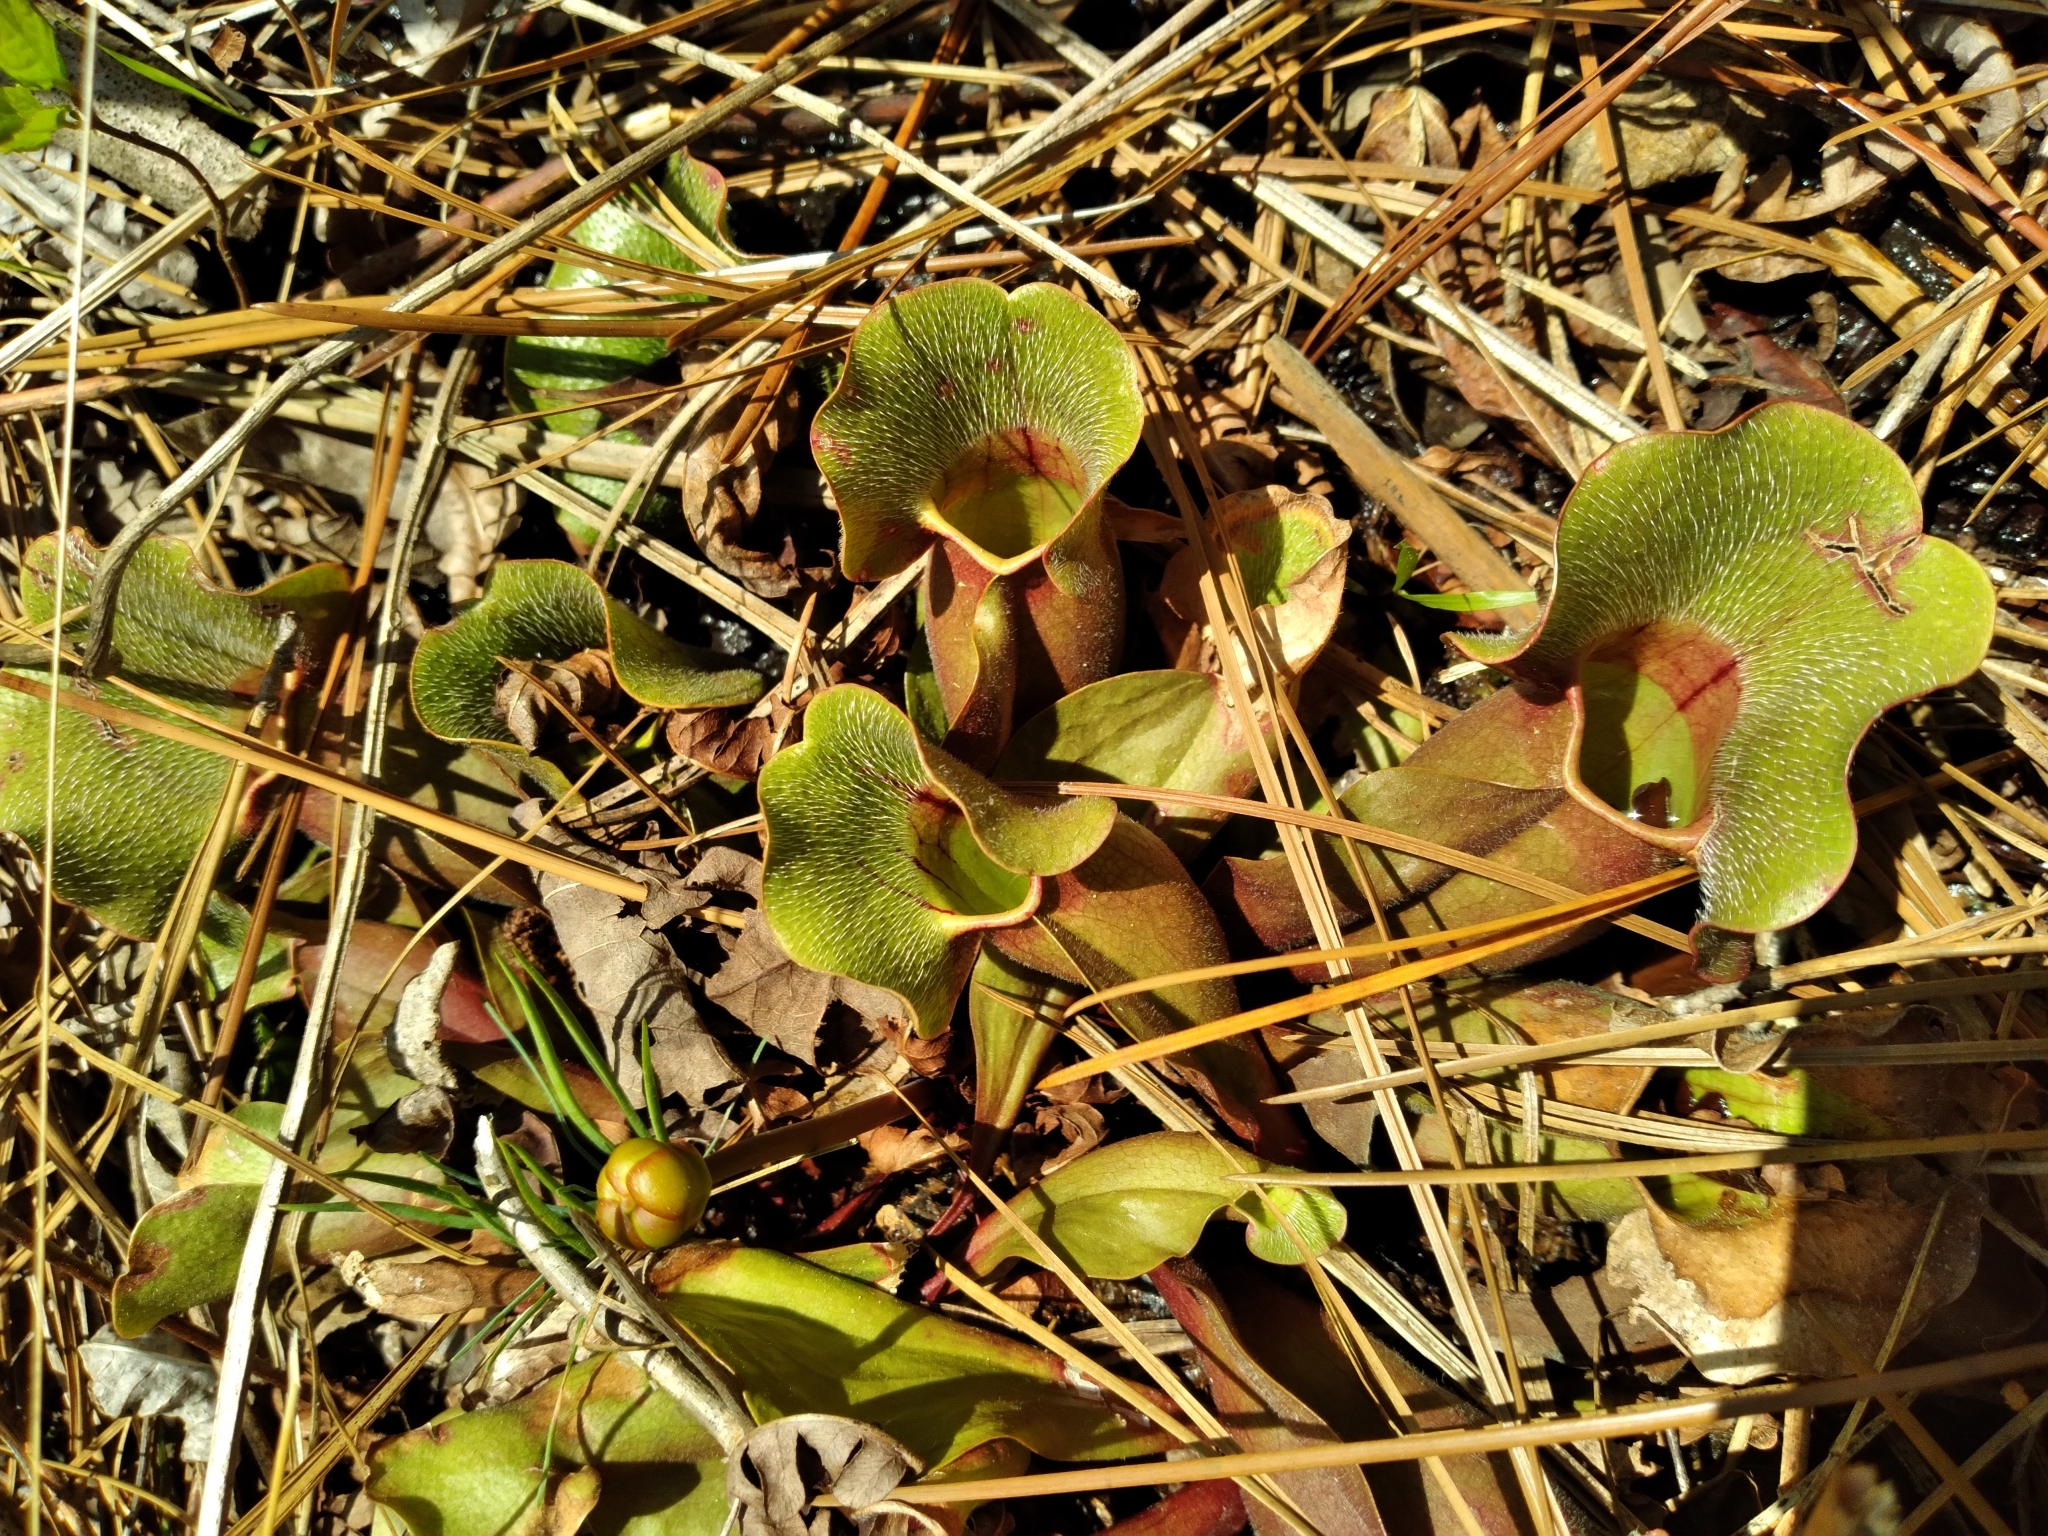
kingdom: Plantae
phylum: Tracheophyta
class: Magnoliopsida
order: Ericales
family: Sarraceniaceae
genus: Sarracenia
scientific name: Sarracenia purpurea
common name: Pitcherplant
